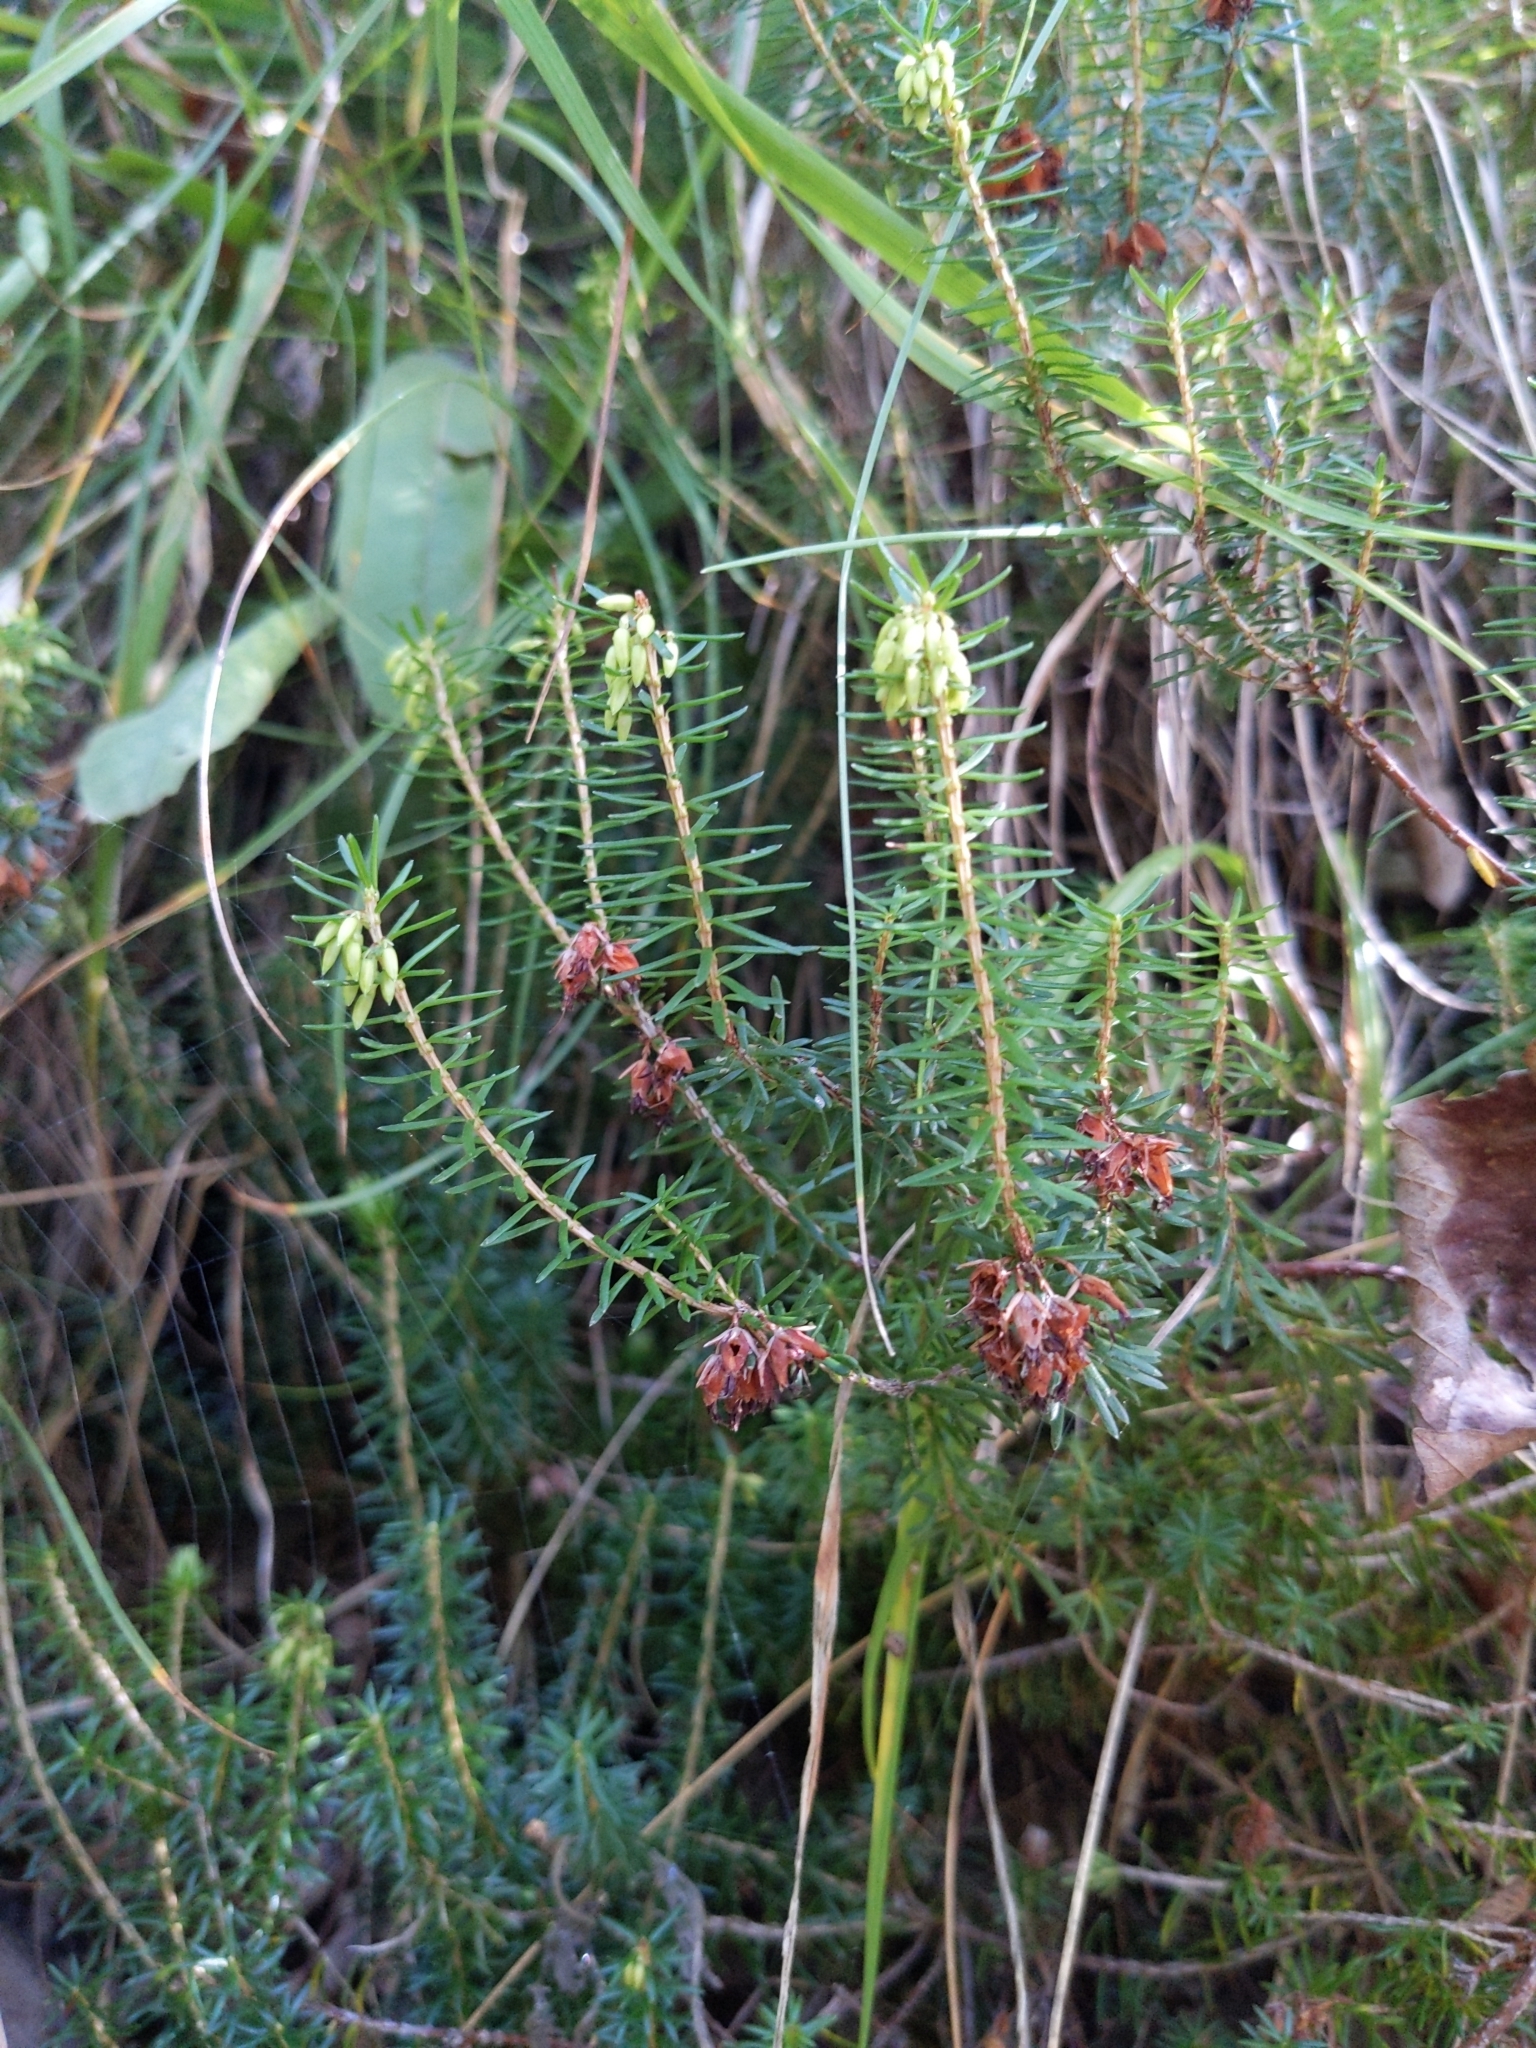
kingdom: Plantae
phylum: Tracheophyta
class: Magnoliopsida
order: Ericales
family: Ericaceae
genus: Erica
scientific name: Erica carnea
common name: Winter heath
